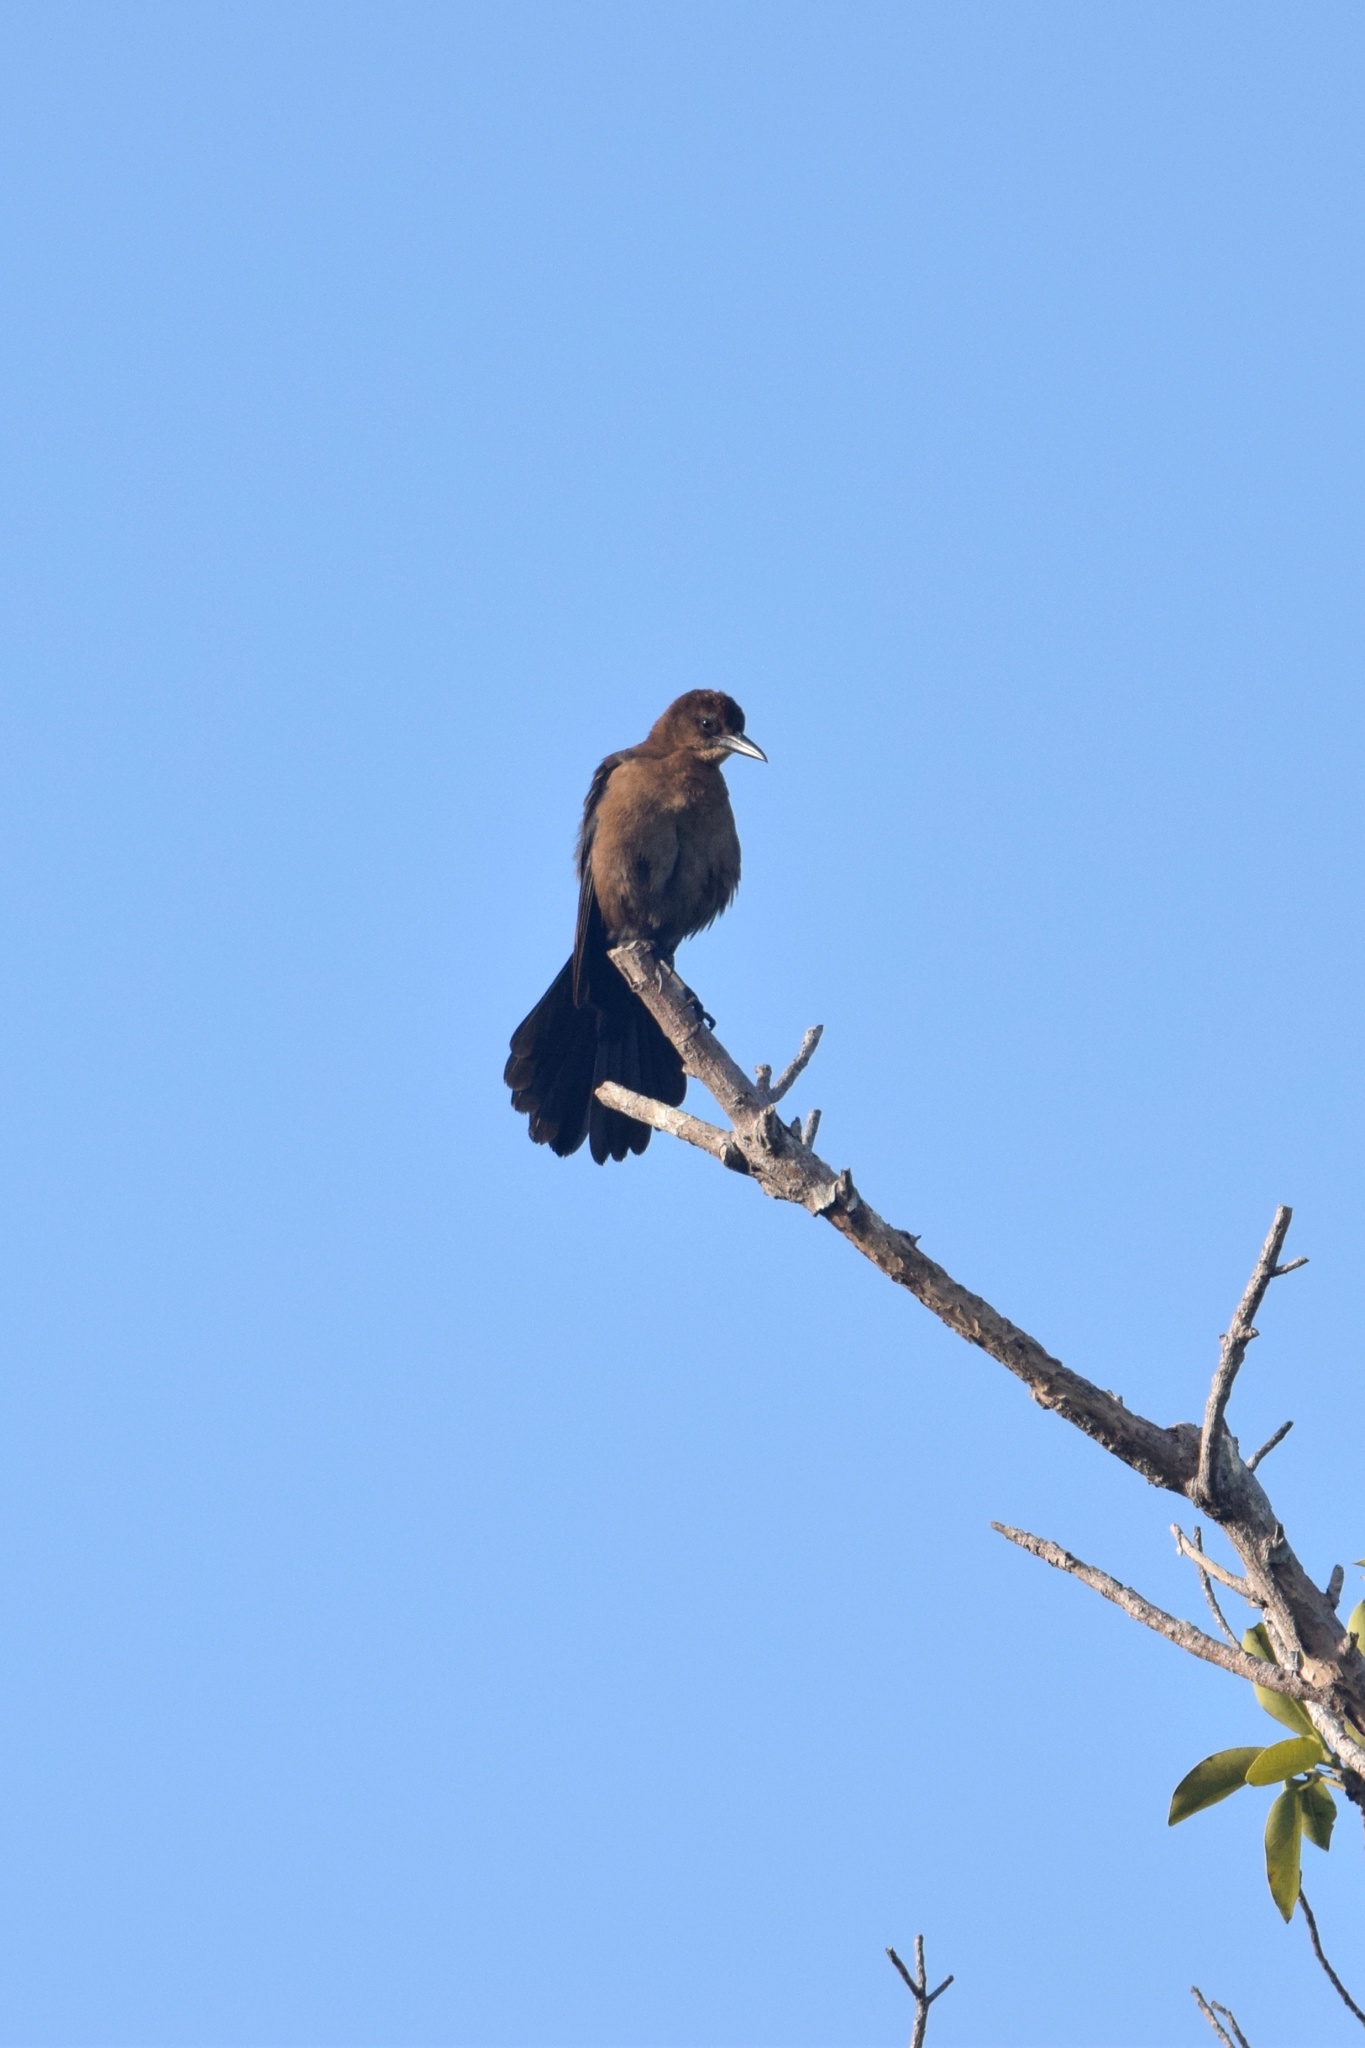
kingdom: Animalia
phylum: Chordata
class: Aves
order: Passeriformes
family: Icteridae
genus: Quiscalus
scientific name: Quiscalus major
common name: Boat-tailed grackle
